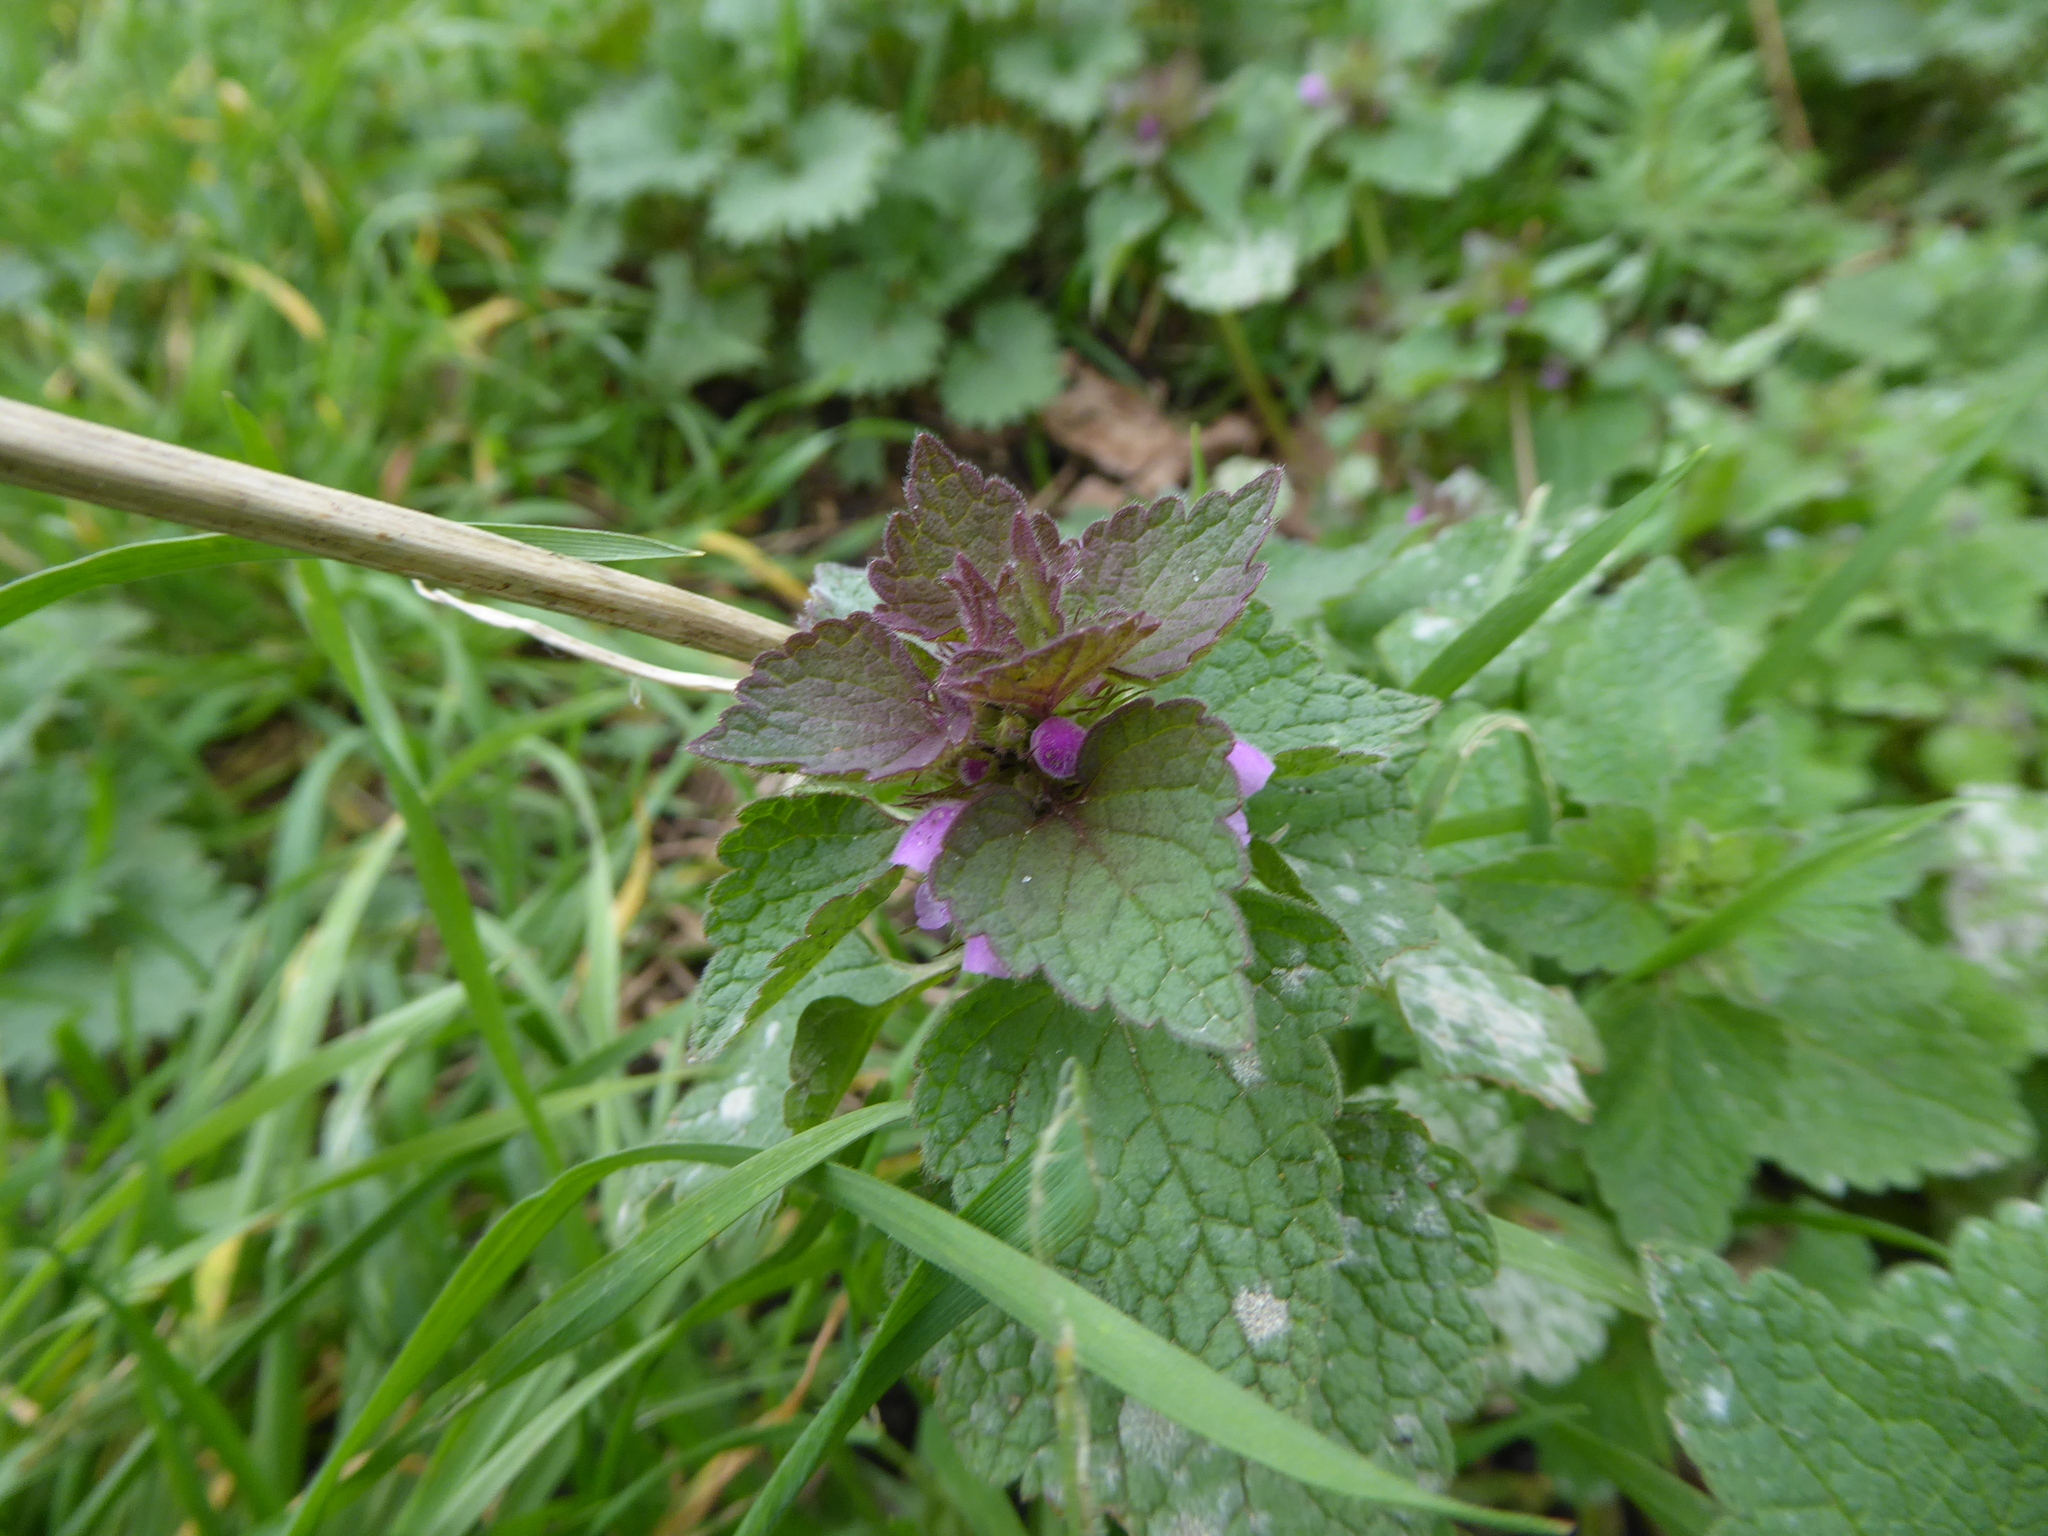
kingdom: Plantae
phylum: Tracheophyta
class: Magnoliopsida
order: Lamiales
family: Lamiaceae
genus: Lamium
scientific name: Lamium purpureum
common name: Red dead-nettle
